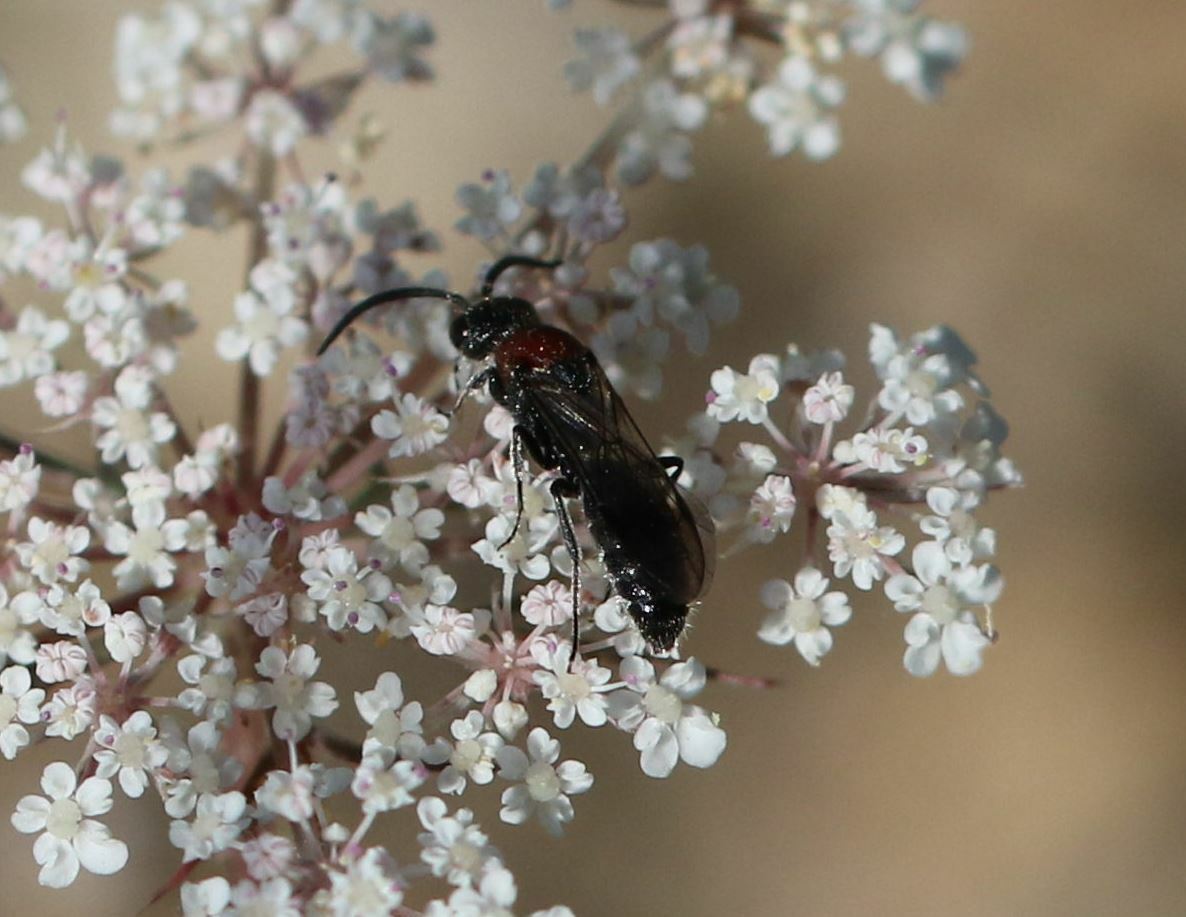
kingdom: Animalia
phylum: Arthropoda
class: Insecta
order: Hymenoptera
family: Mutillidae
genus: Krombeinella
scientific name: Krombeinella thoracica
